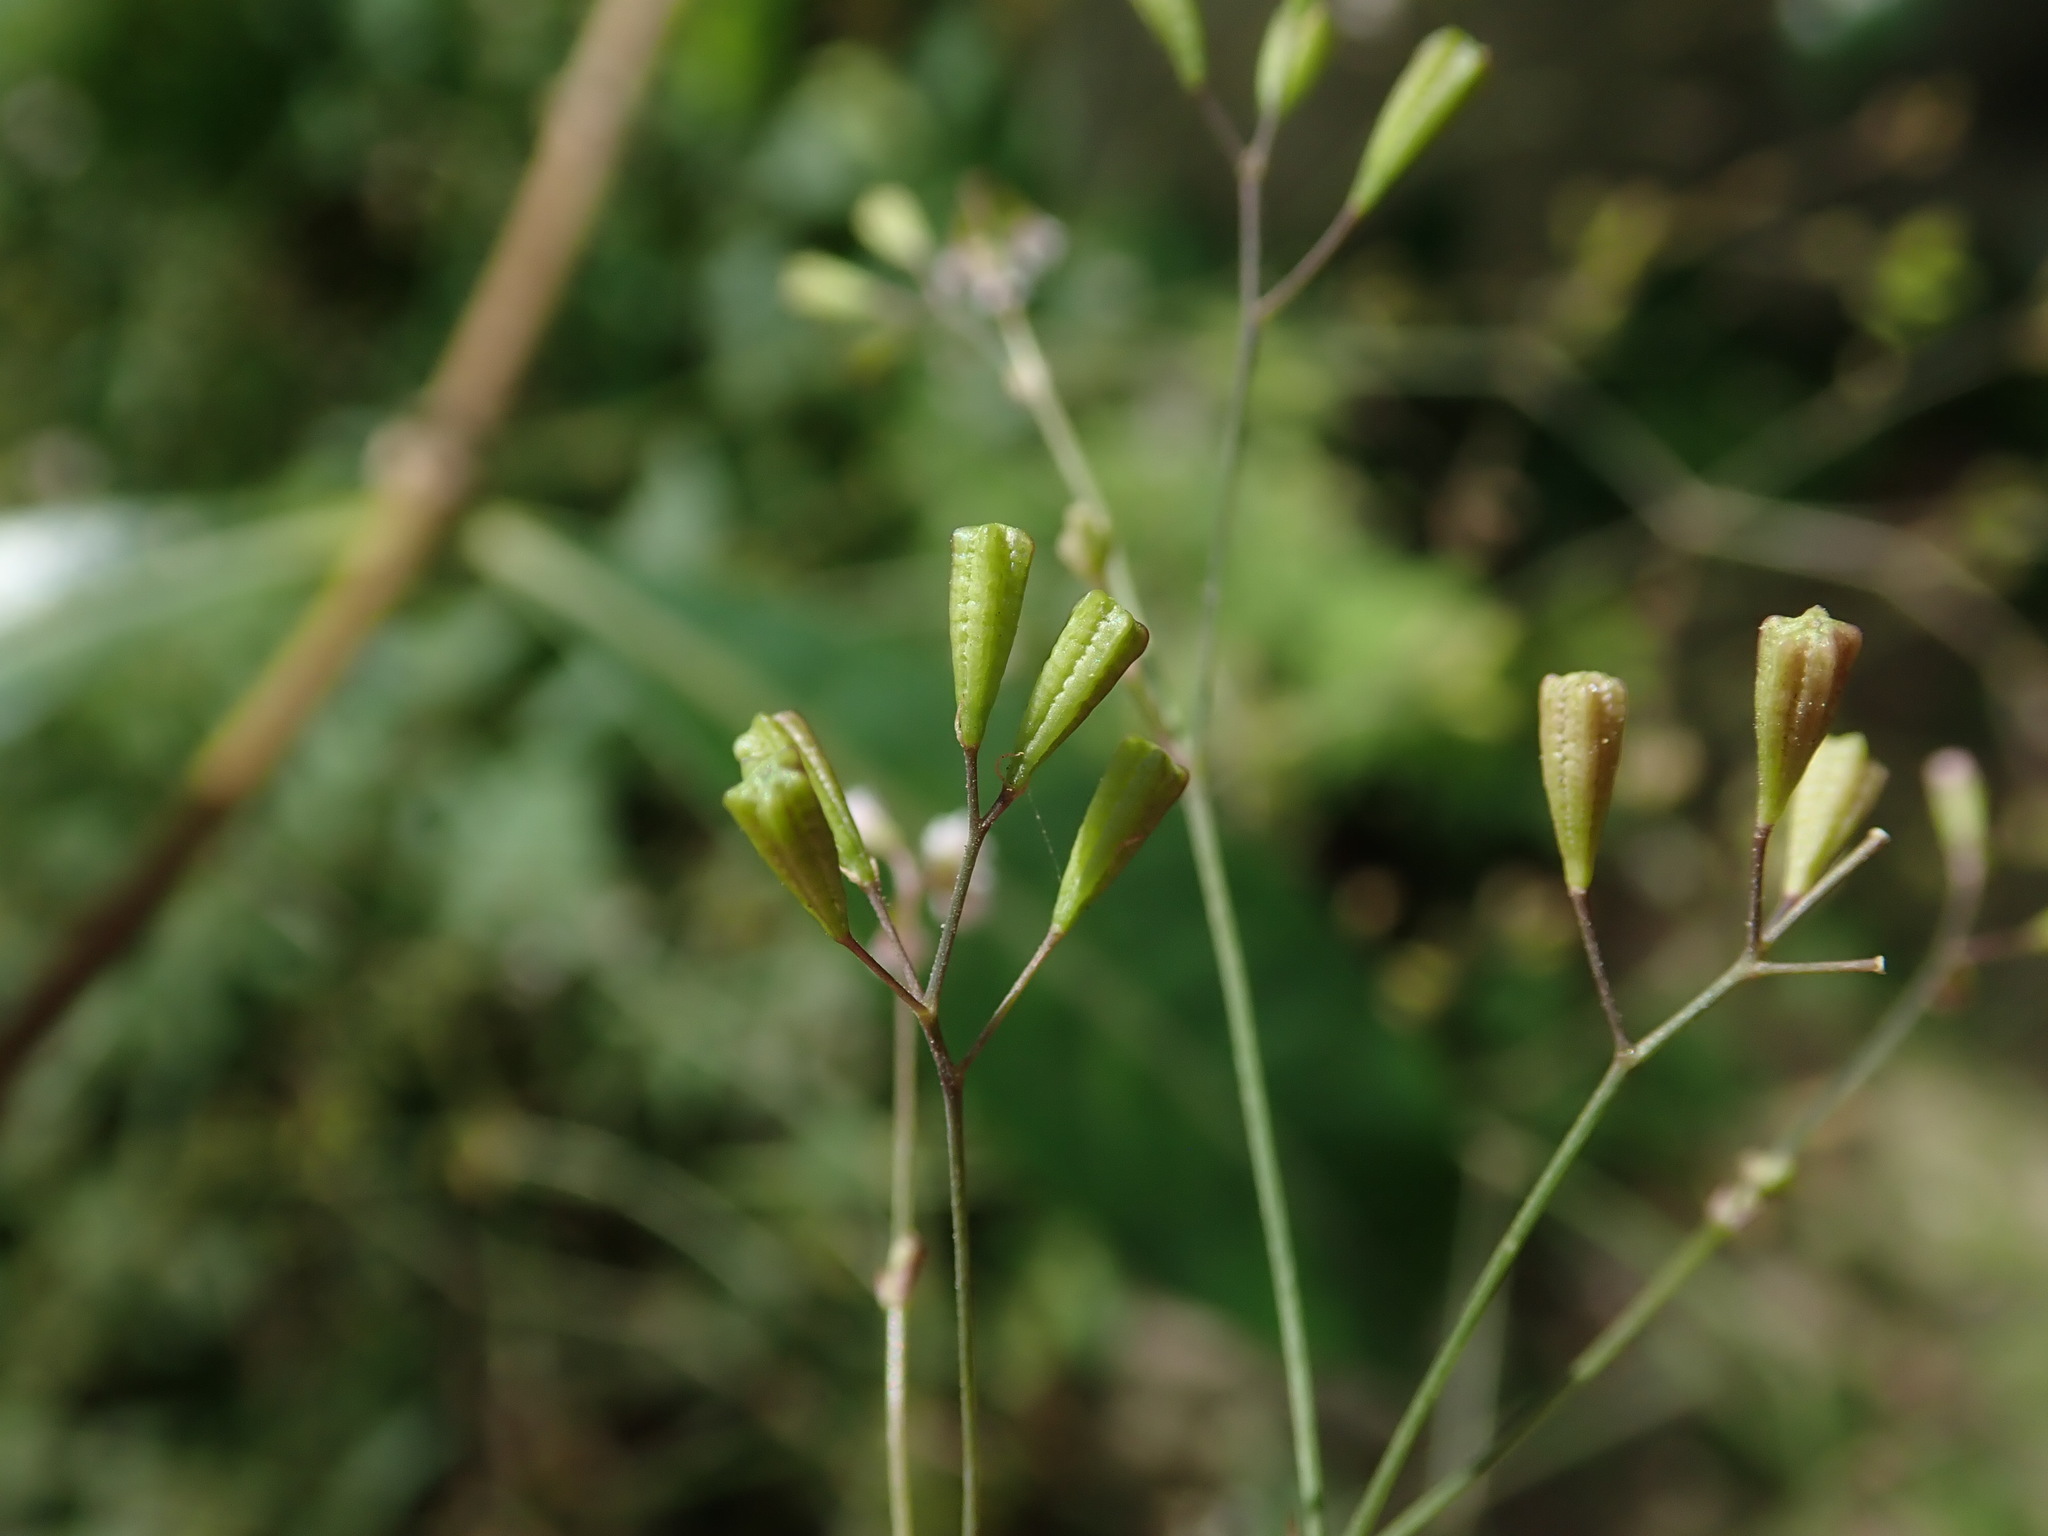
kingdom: Plantae
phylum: Tracheophyta
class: Magnoliopsida
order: Caryophyllales
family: Nyctaginaceae
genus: Boerhavia
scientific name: Boerhavia erecta
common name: Erect spiderling
